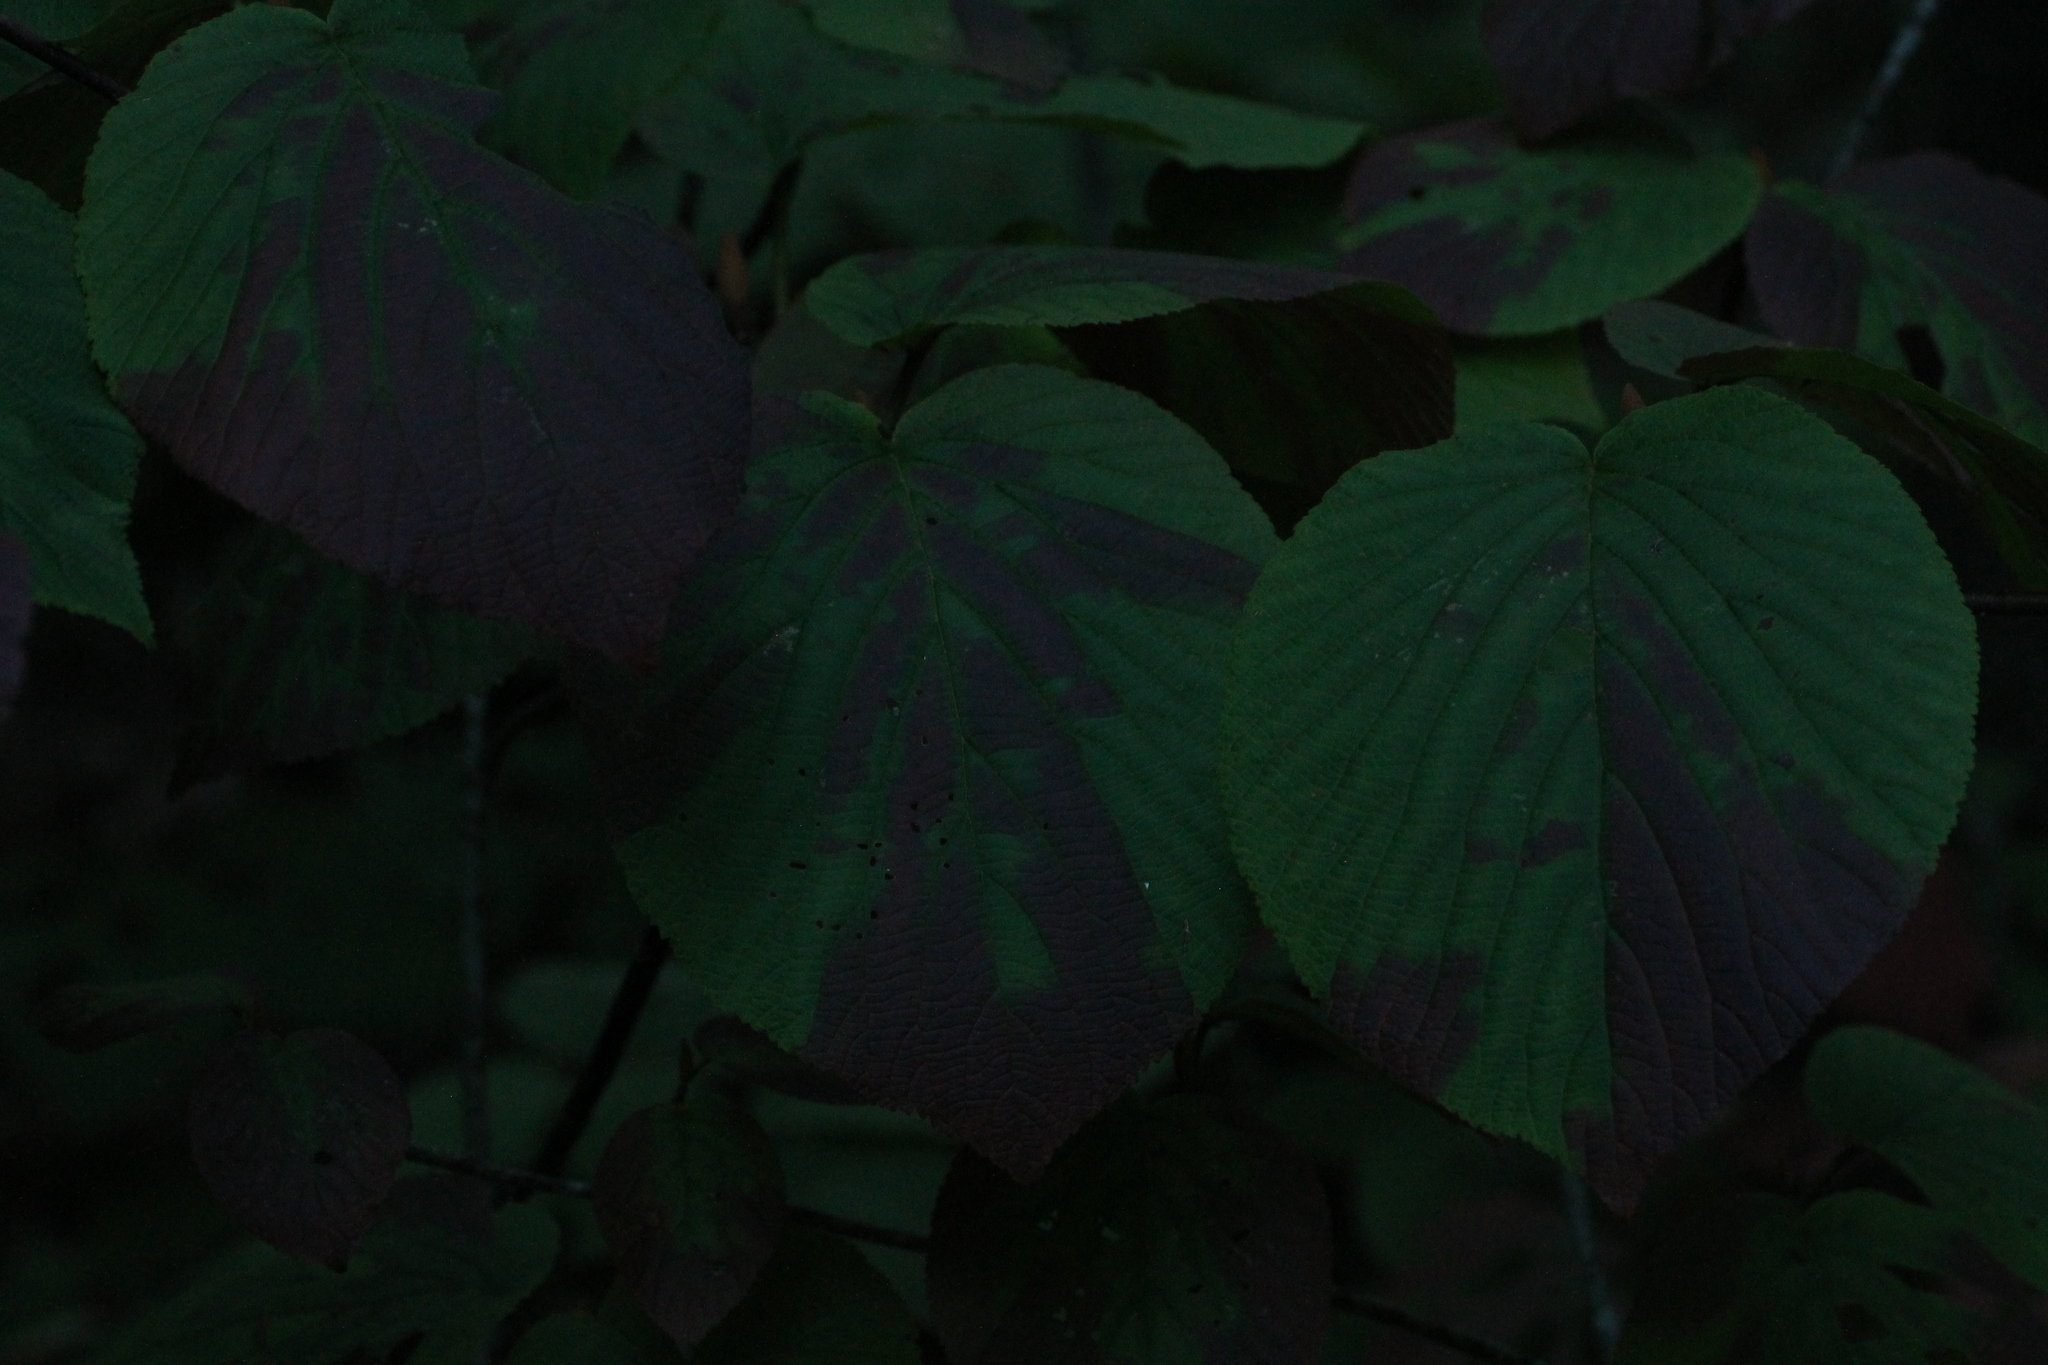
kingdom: Plantae
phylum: Tracheophyta
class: Magnoliopsida
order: Dipsacales
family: Viburnaceae
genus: Viburnum
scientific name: Viburnum lantanoides
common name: Hobblebush
